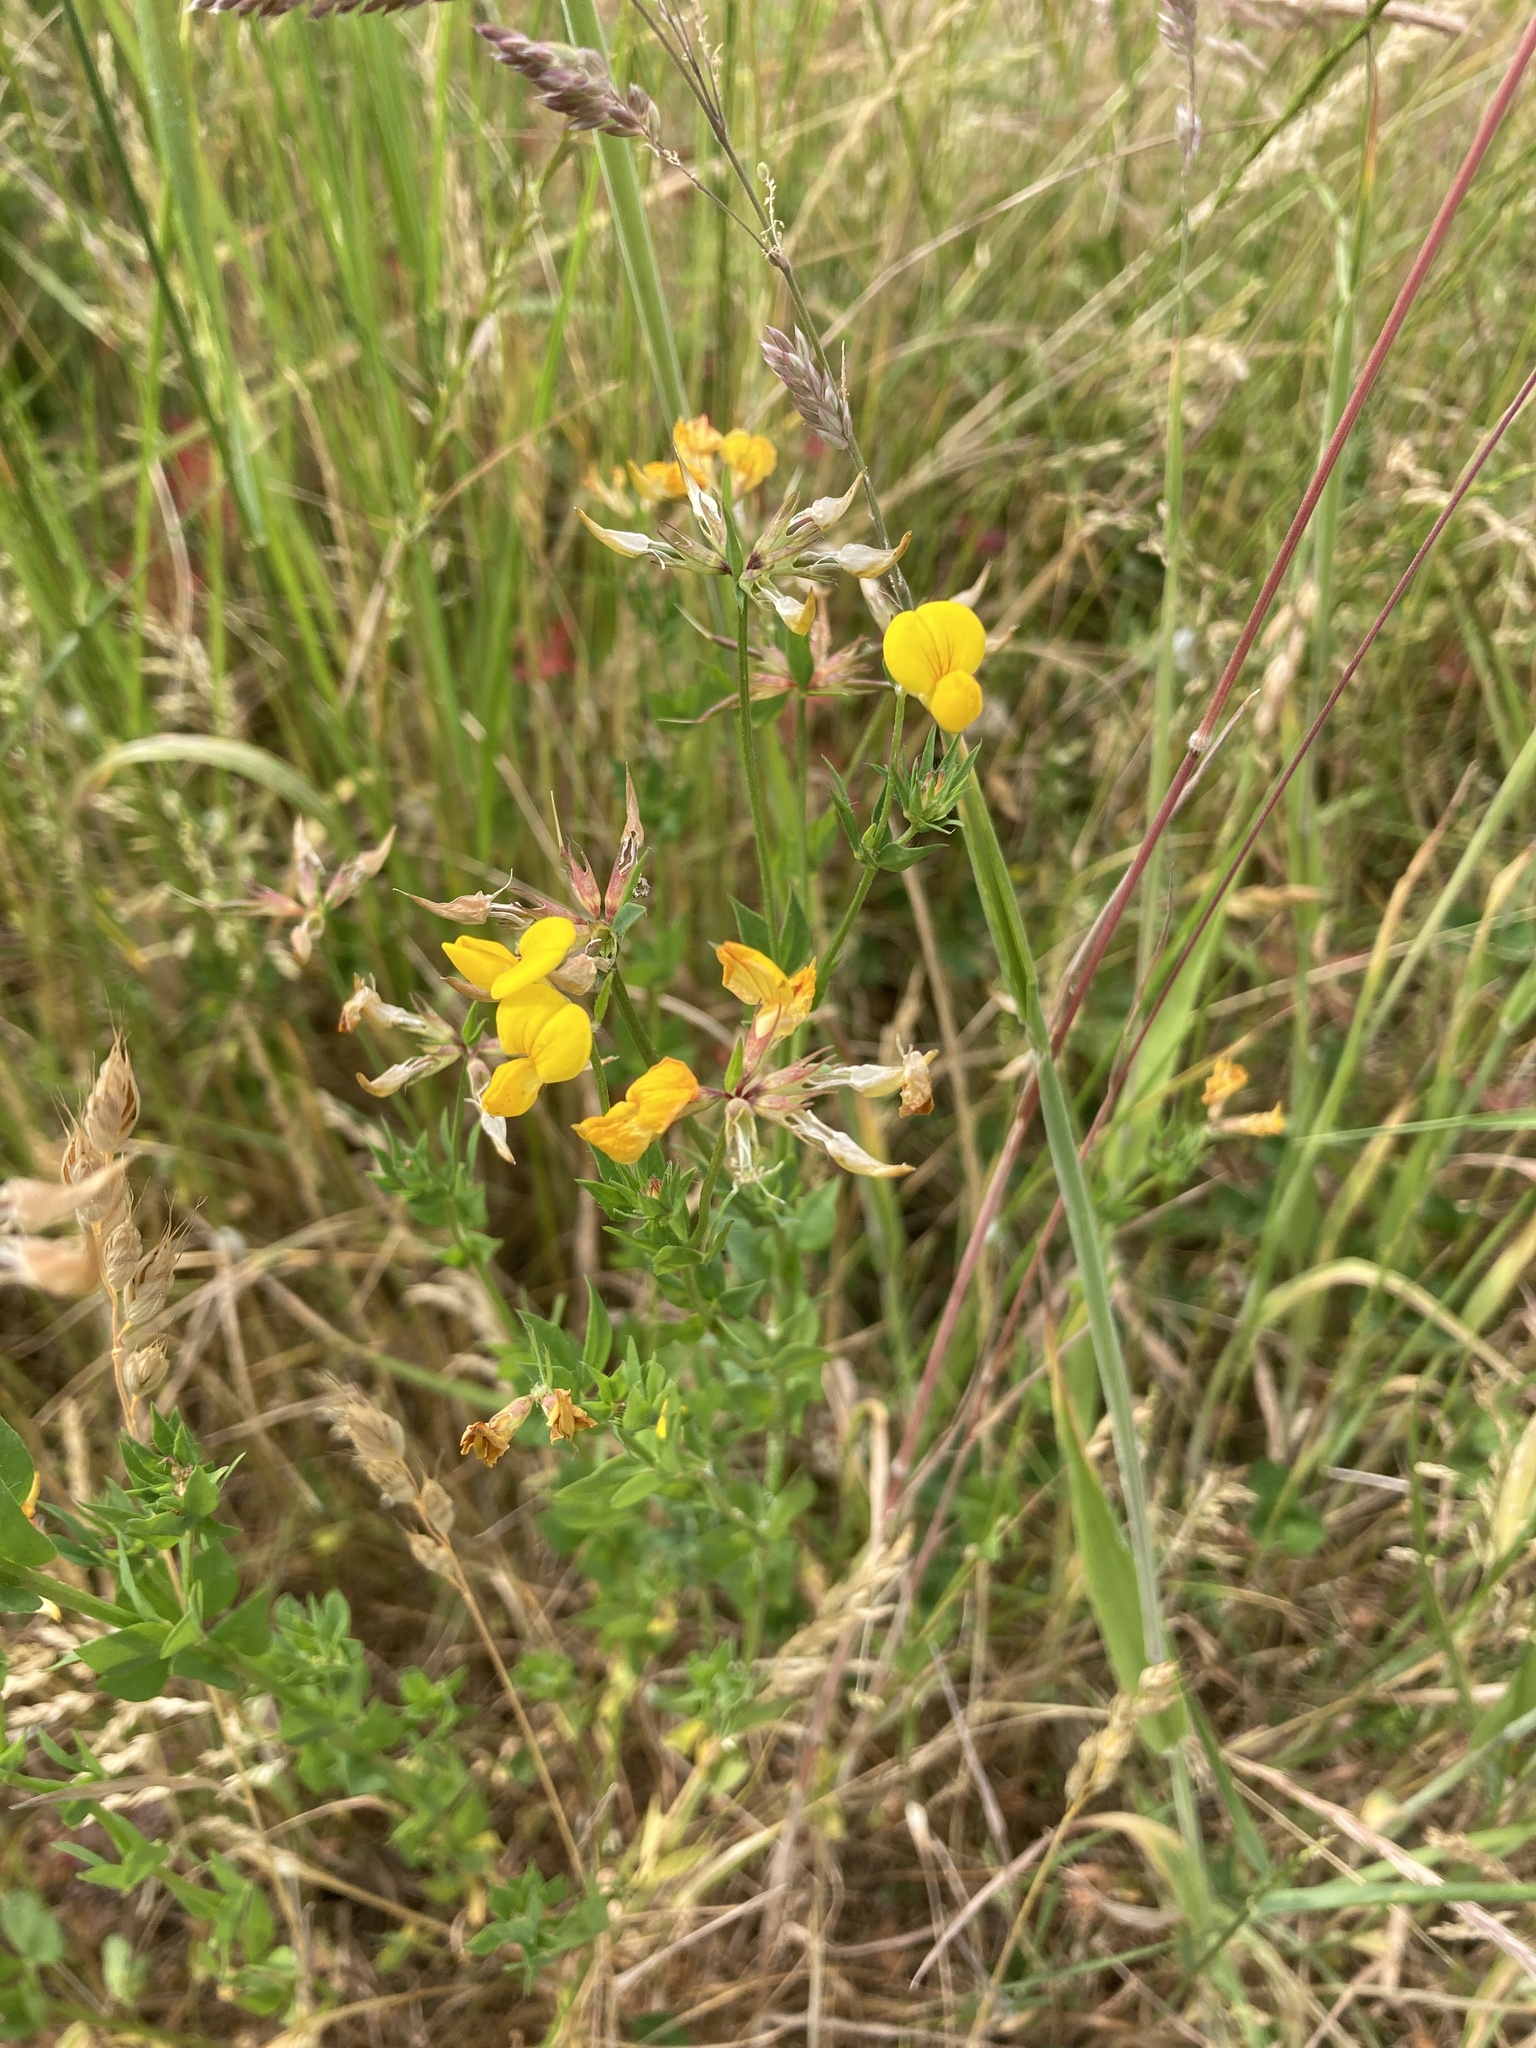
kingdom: Plantae
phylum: Tracheophyta
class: Magnoliopsida
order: Fabales
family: Fabaceae
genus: Lotus
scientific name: Lotus corniculatus
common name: Common bird's-foot-trefoil
